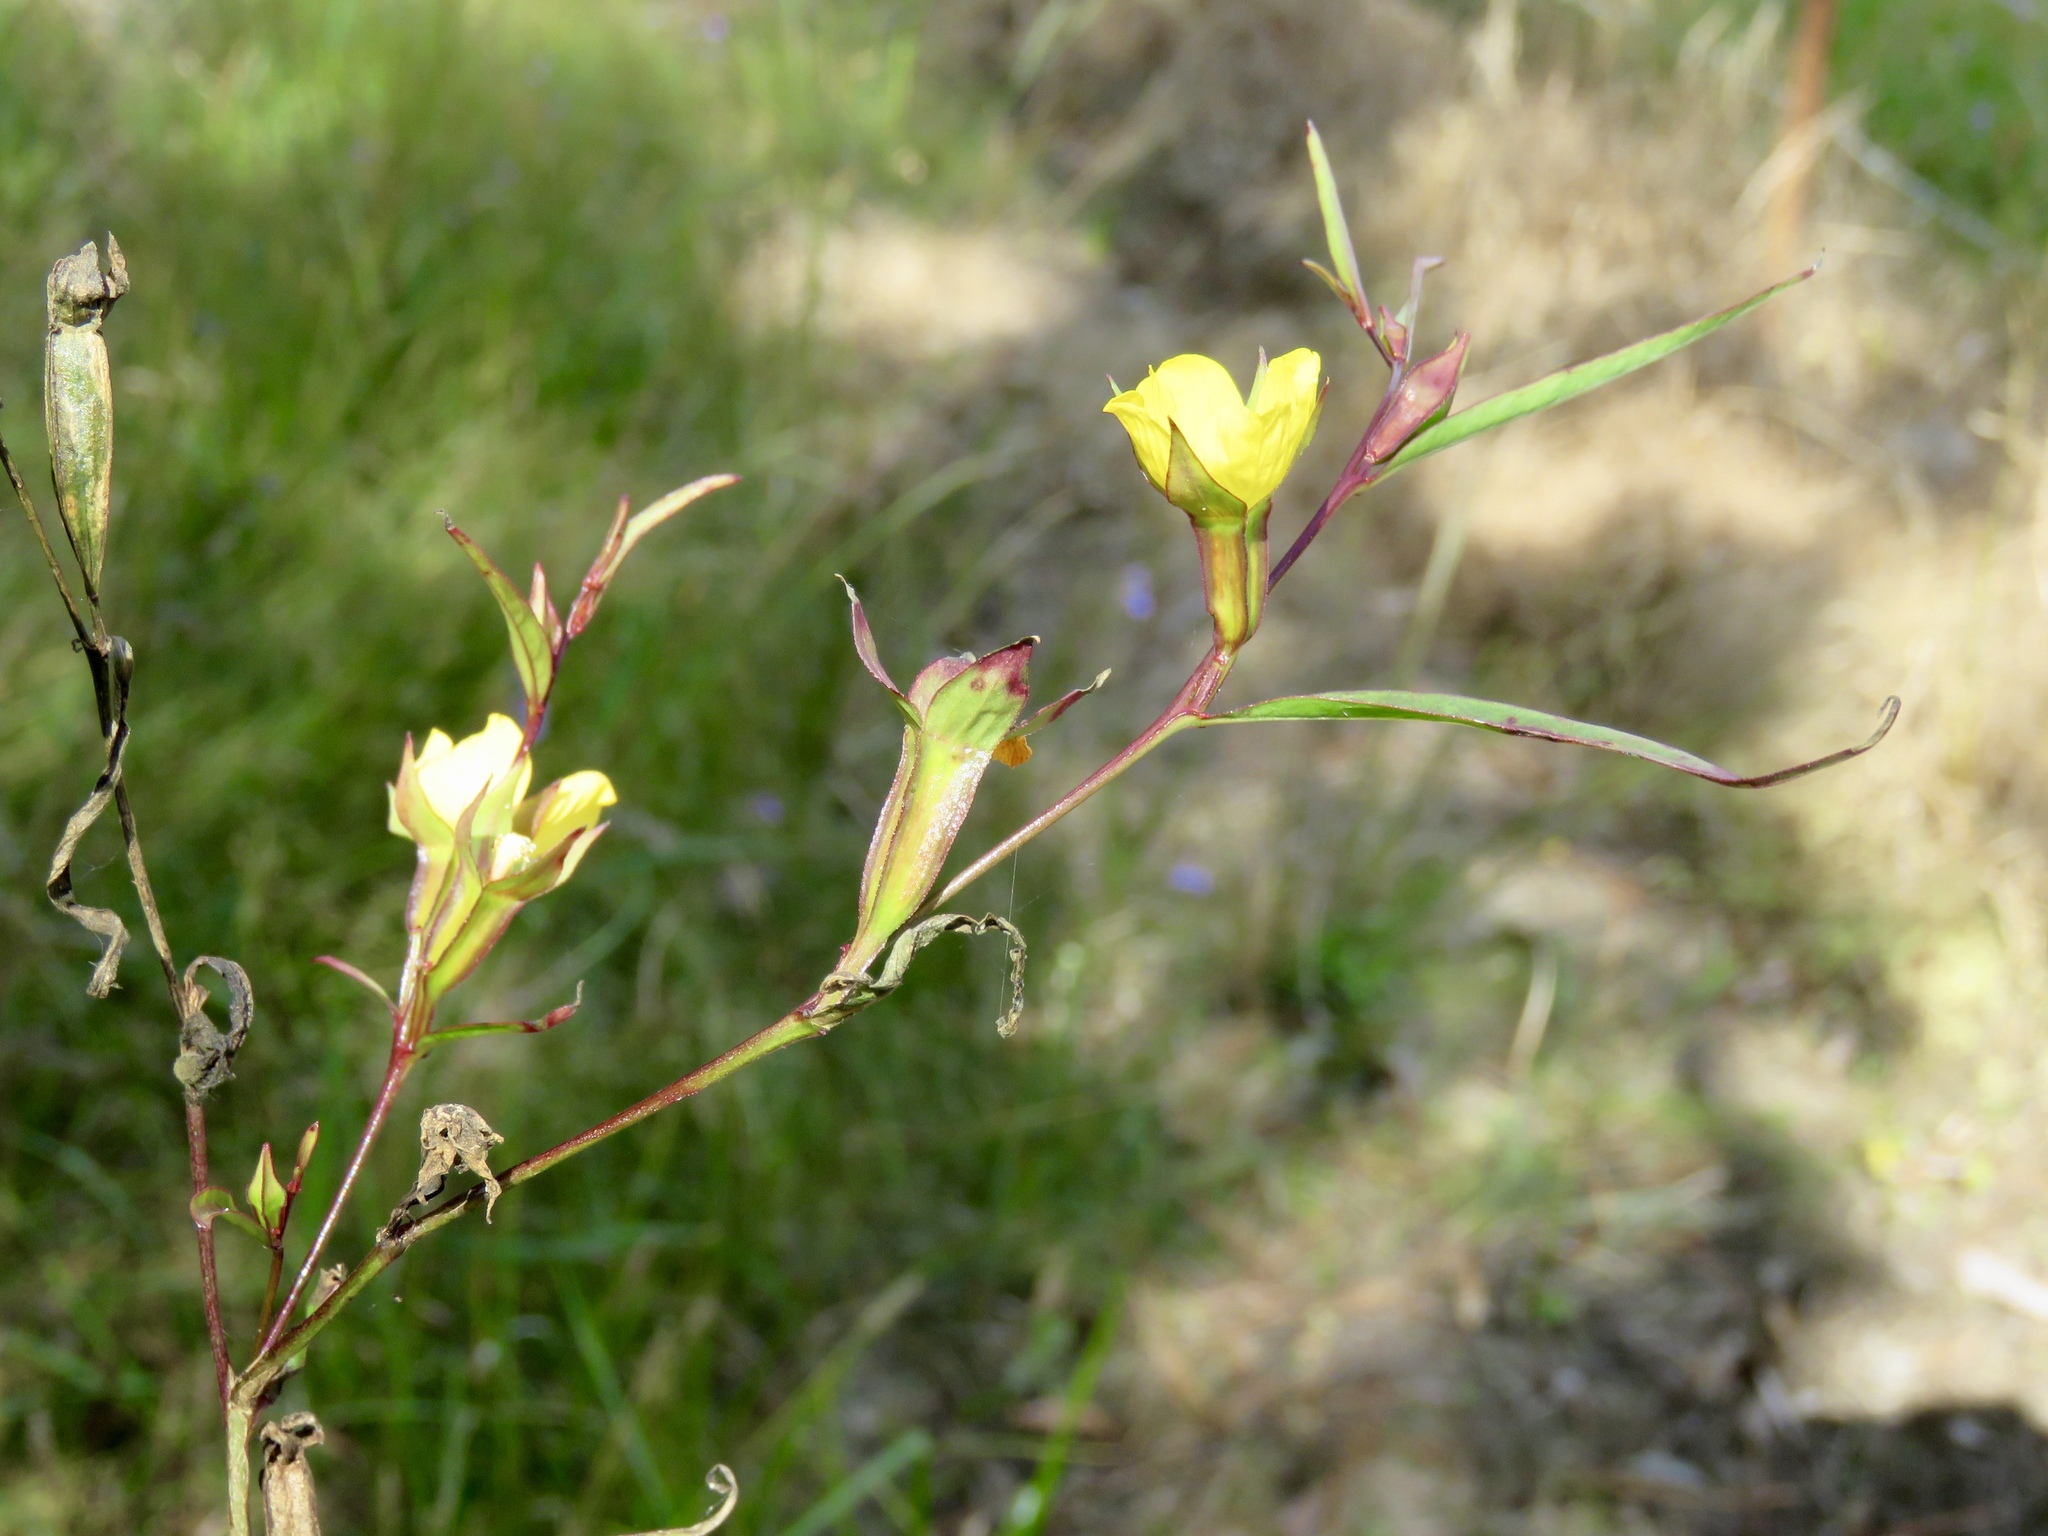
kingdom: Plantae
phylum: Tracheophyta
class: Magnoliopsida
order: Myrtales
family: Onagraceae
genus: Ludwigia
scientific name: Ludwigia linearis
